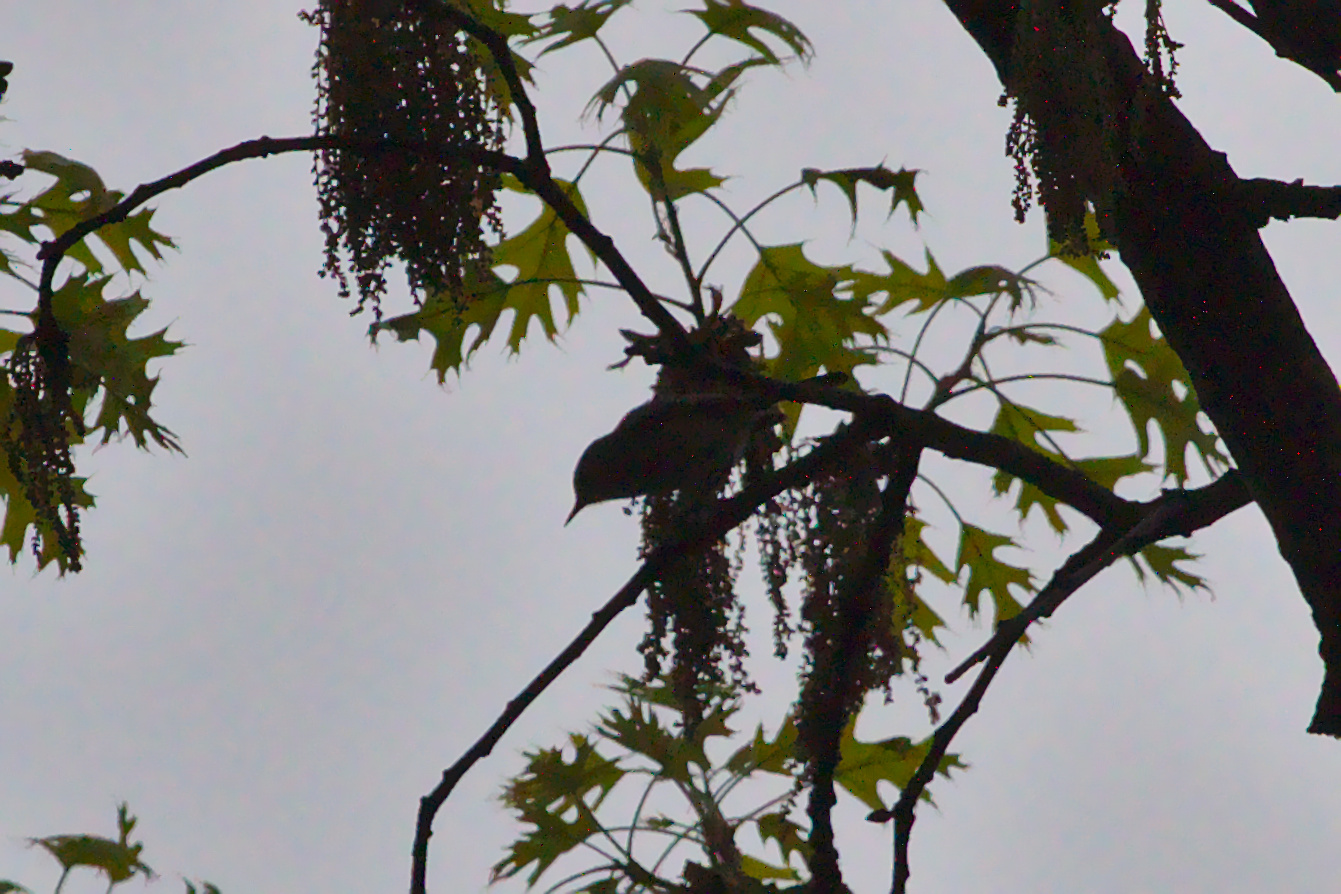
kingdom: Animalia
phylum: Chordata
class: Aves
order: Passeriformes
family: Polioptilidae
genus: Polioptila
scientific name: Polioptila caerulea
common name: Blue-gray gnatcatcher
